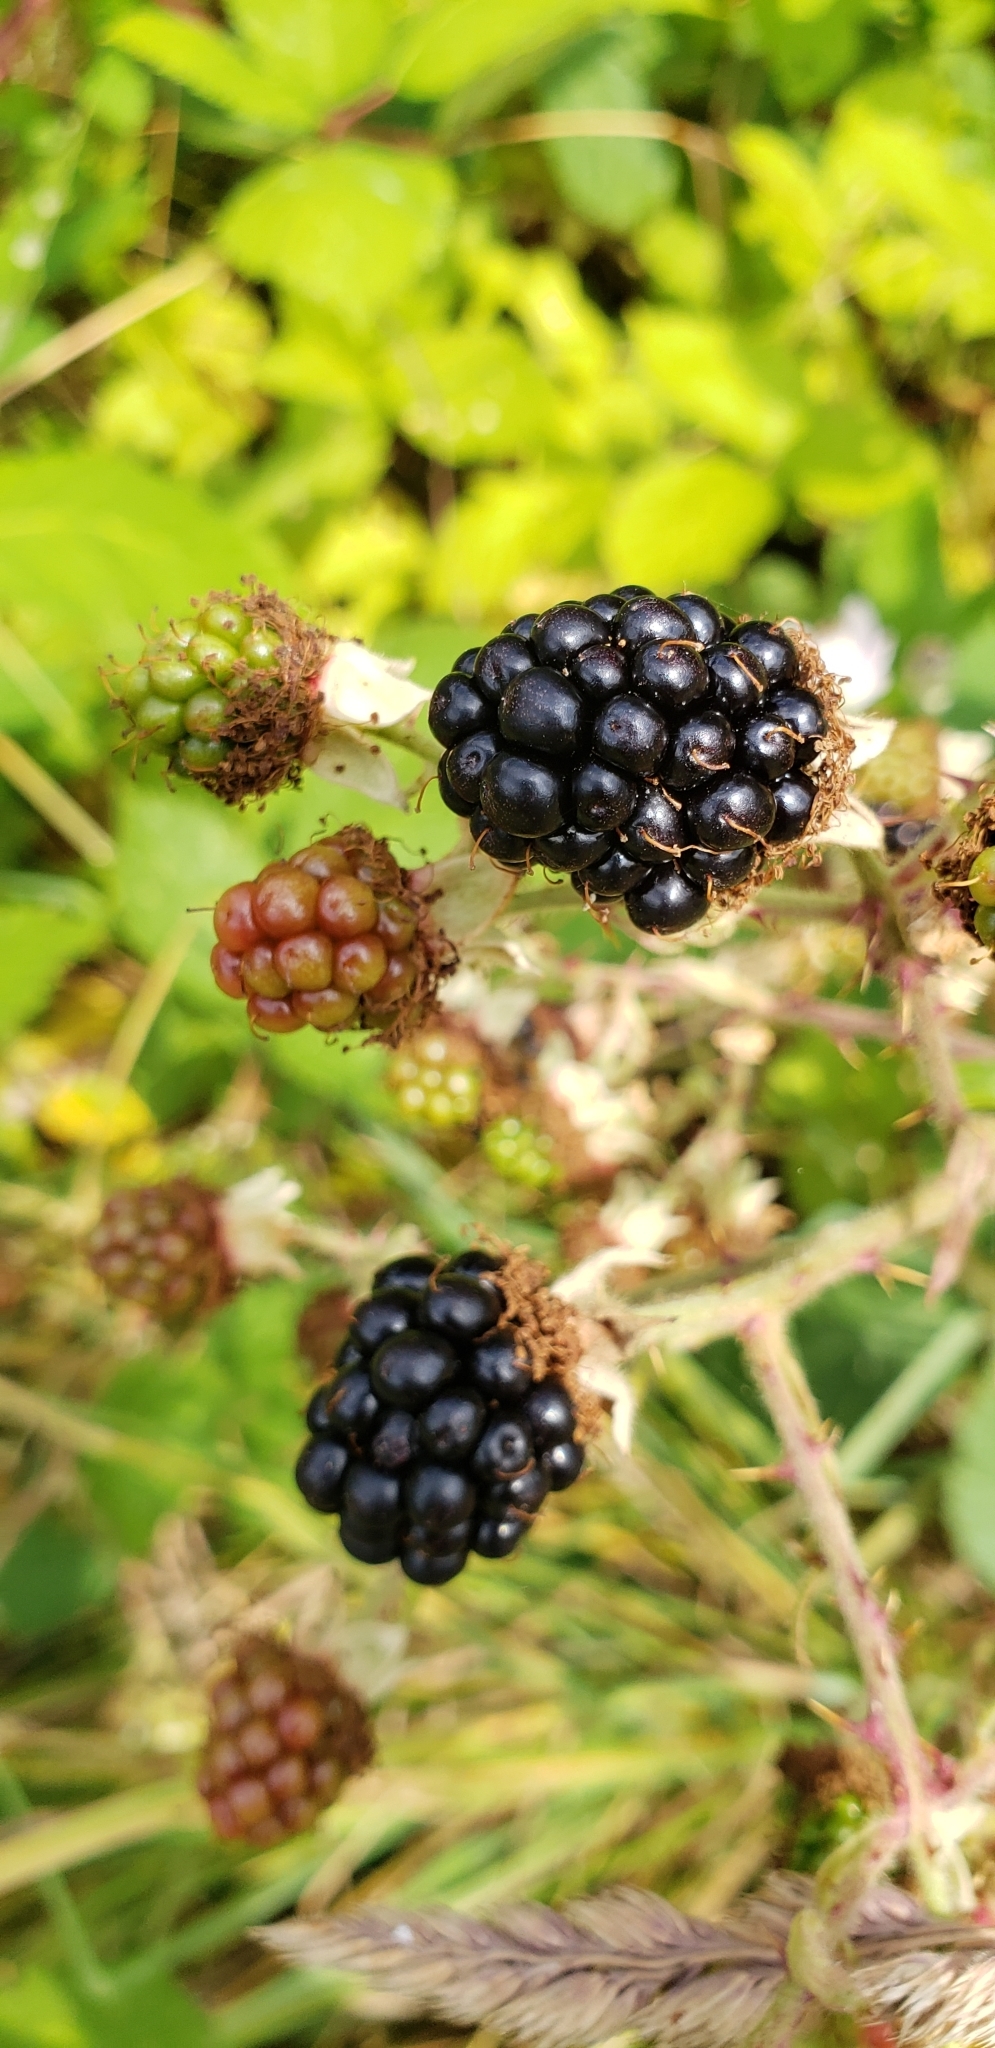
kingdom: Plantae
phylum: Tracheophyta
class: Magnoliopsida
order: Rosales
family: Rosaceae
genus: Rubus
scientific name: Rubus bifrons
